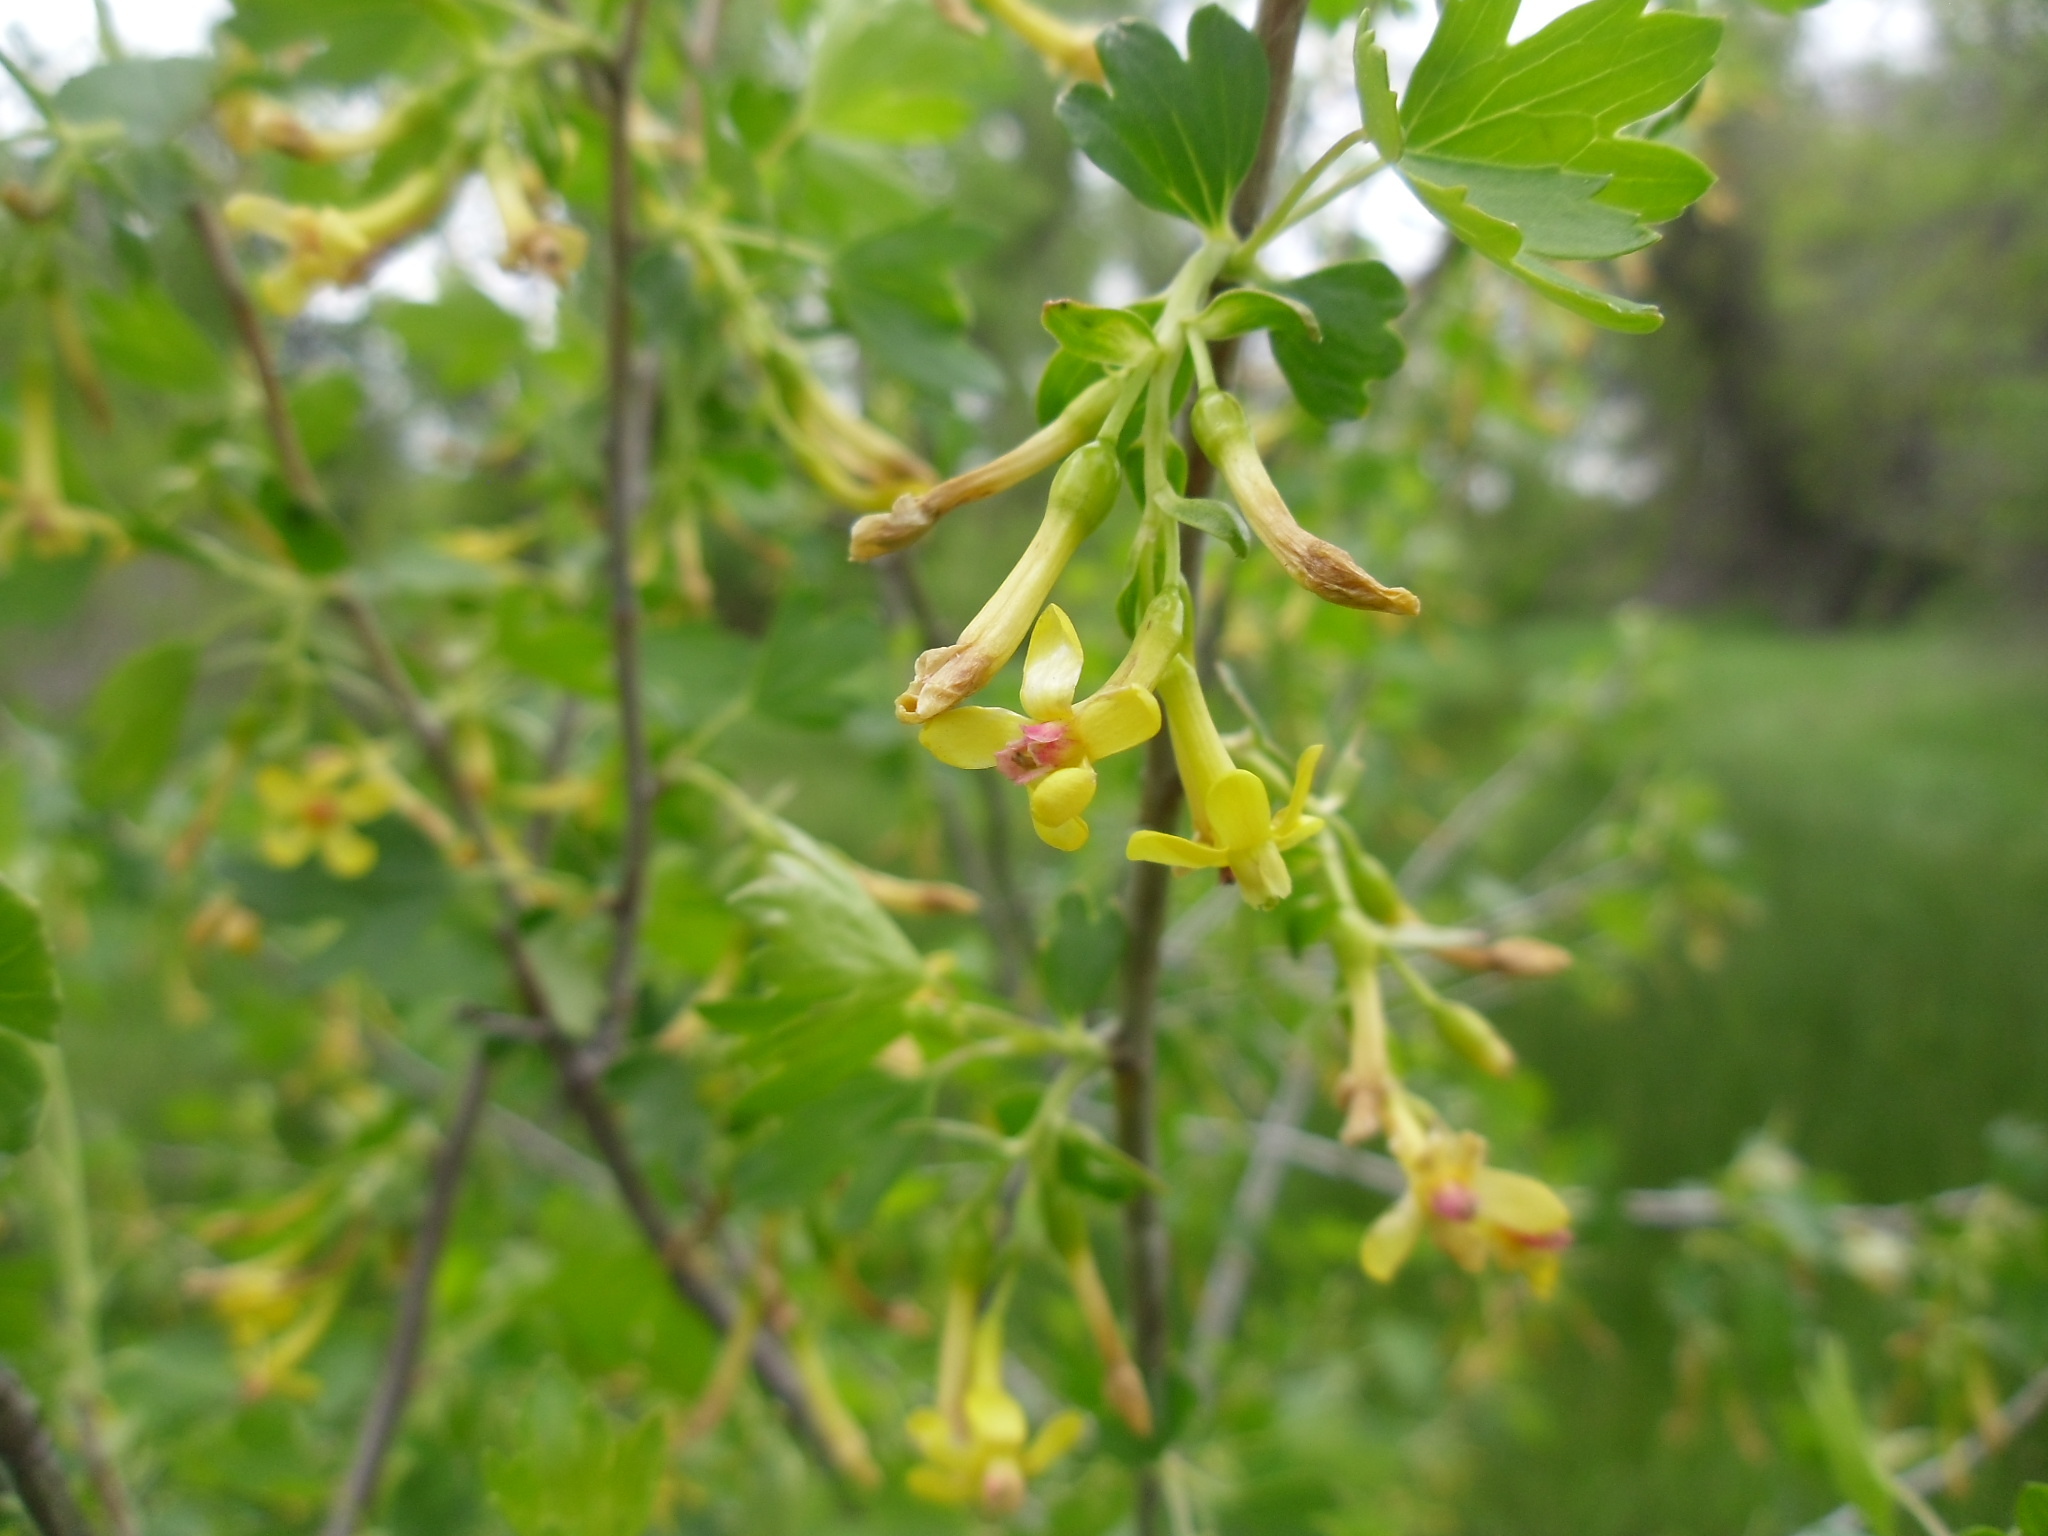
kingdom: Plantae
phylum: Tracheophyta
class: Magnoliopsida
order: Saxifragales
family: Grossulariaceae
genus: Ribes
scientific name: Ribes aureum
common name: Golden currant
